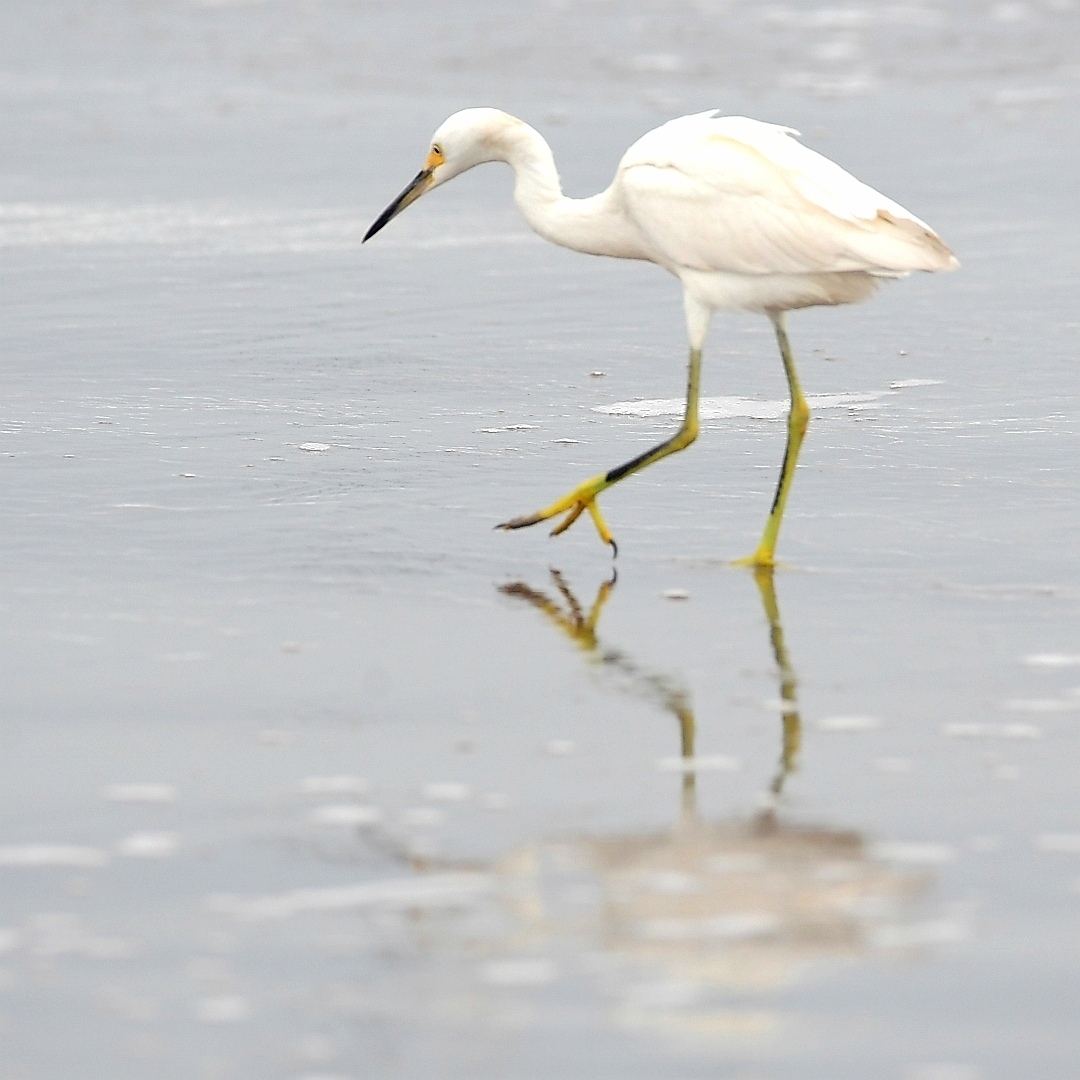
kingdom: Animalia
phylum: Chordata
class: Aves
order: Pelecaniformes
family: Ardeidae
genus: Egretta
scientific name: Egretta thula
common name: Snowy egret
